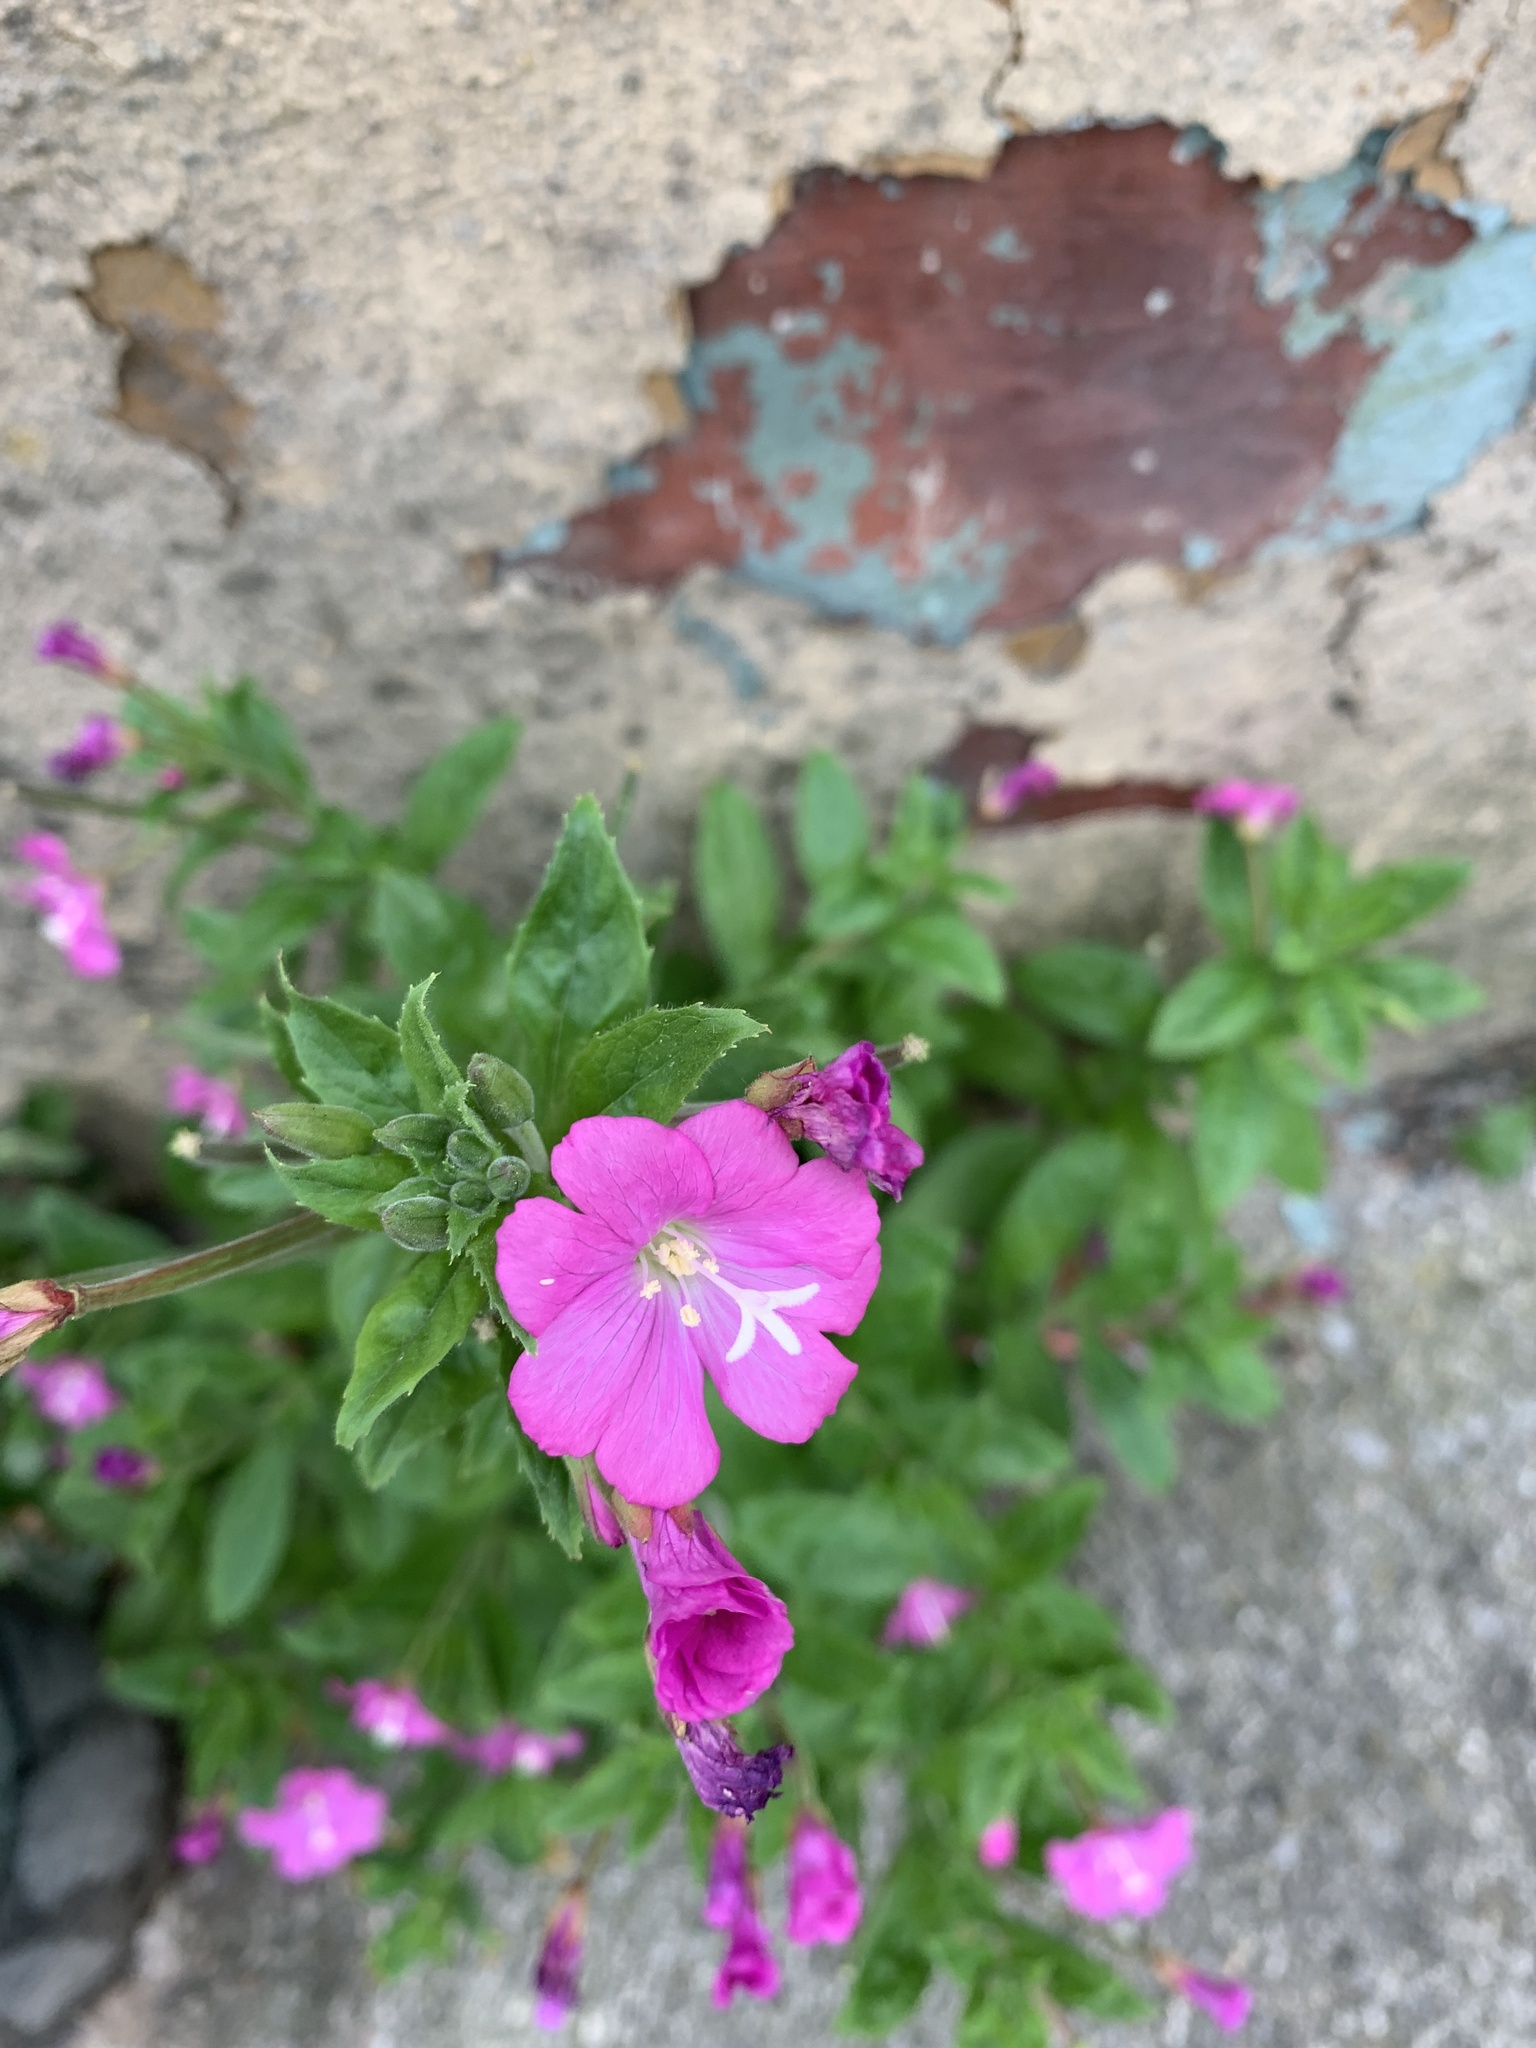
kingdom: Plantae
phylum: Tracheophyta
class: Magnoliopsida
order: Myrtales
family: Onagraceae
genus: Epilobium
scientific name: Epilobium hirsutum
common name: Great willowherb
